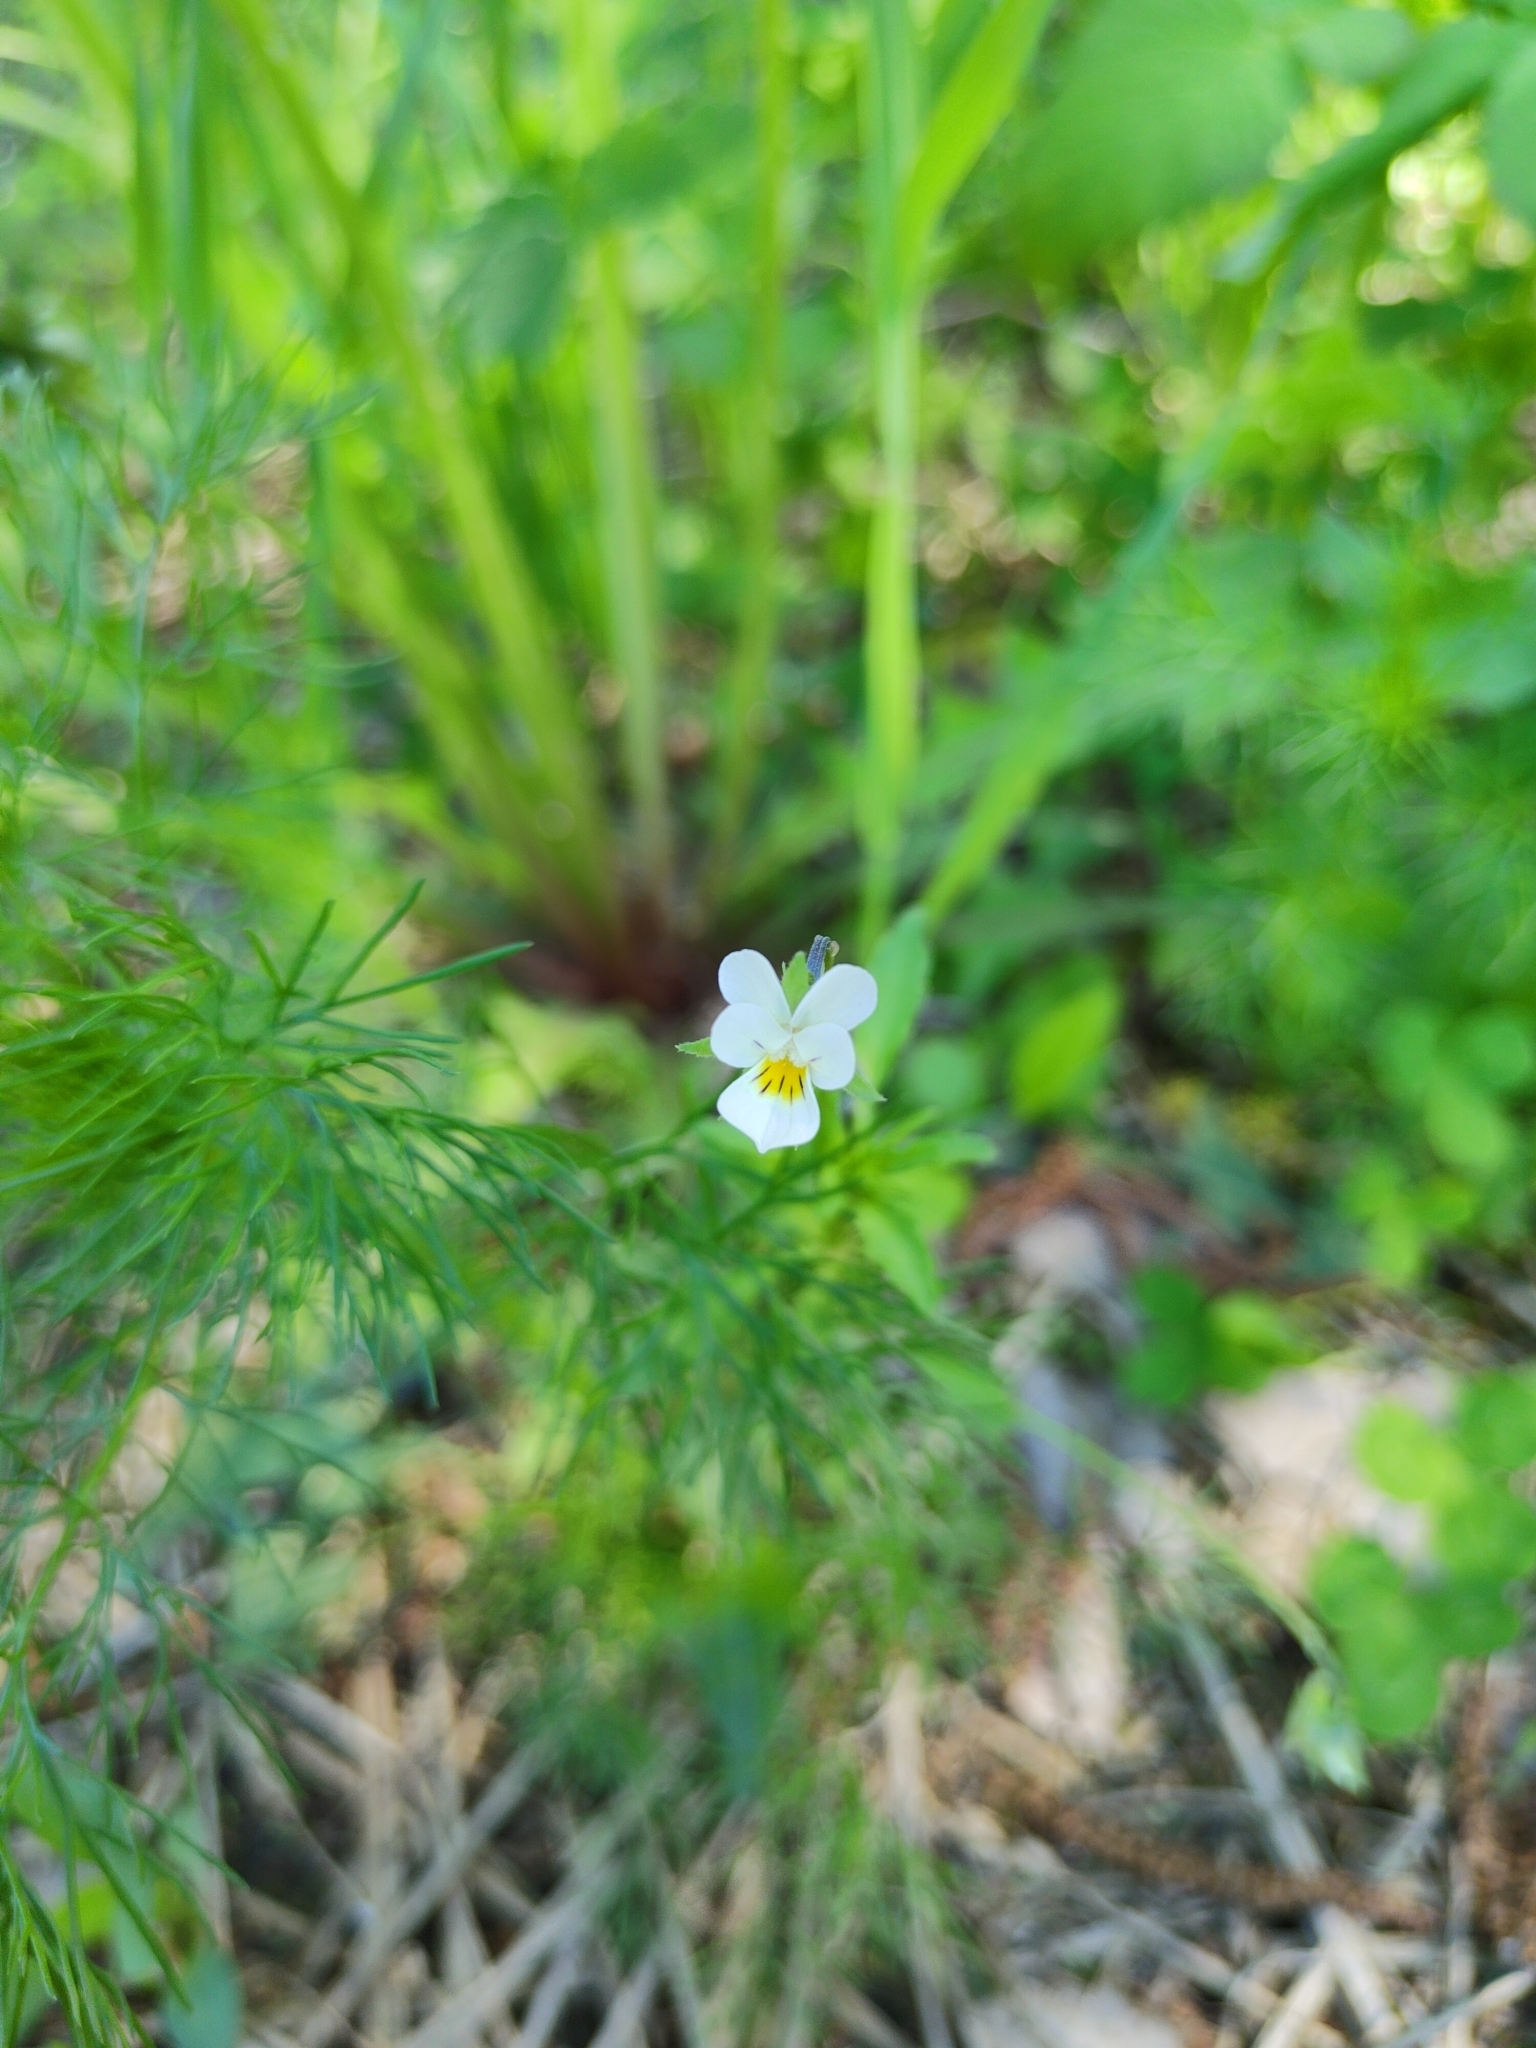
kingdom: Plantae
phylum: Tracheophyta
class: Magnoliopsida
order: Malpighiales
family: Violaceae
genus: Viola
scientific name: Viola arvensis
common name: Field pansy
